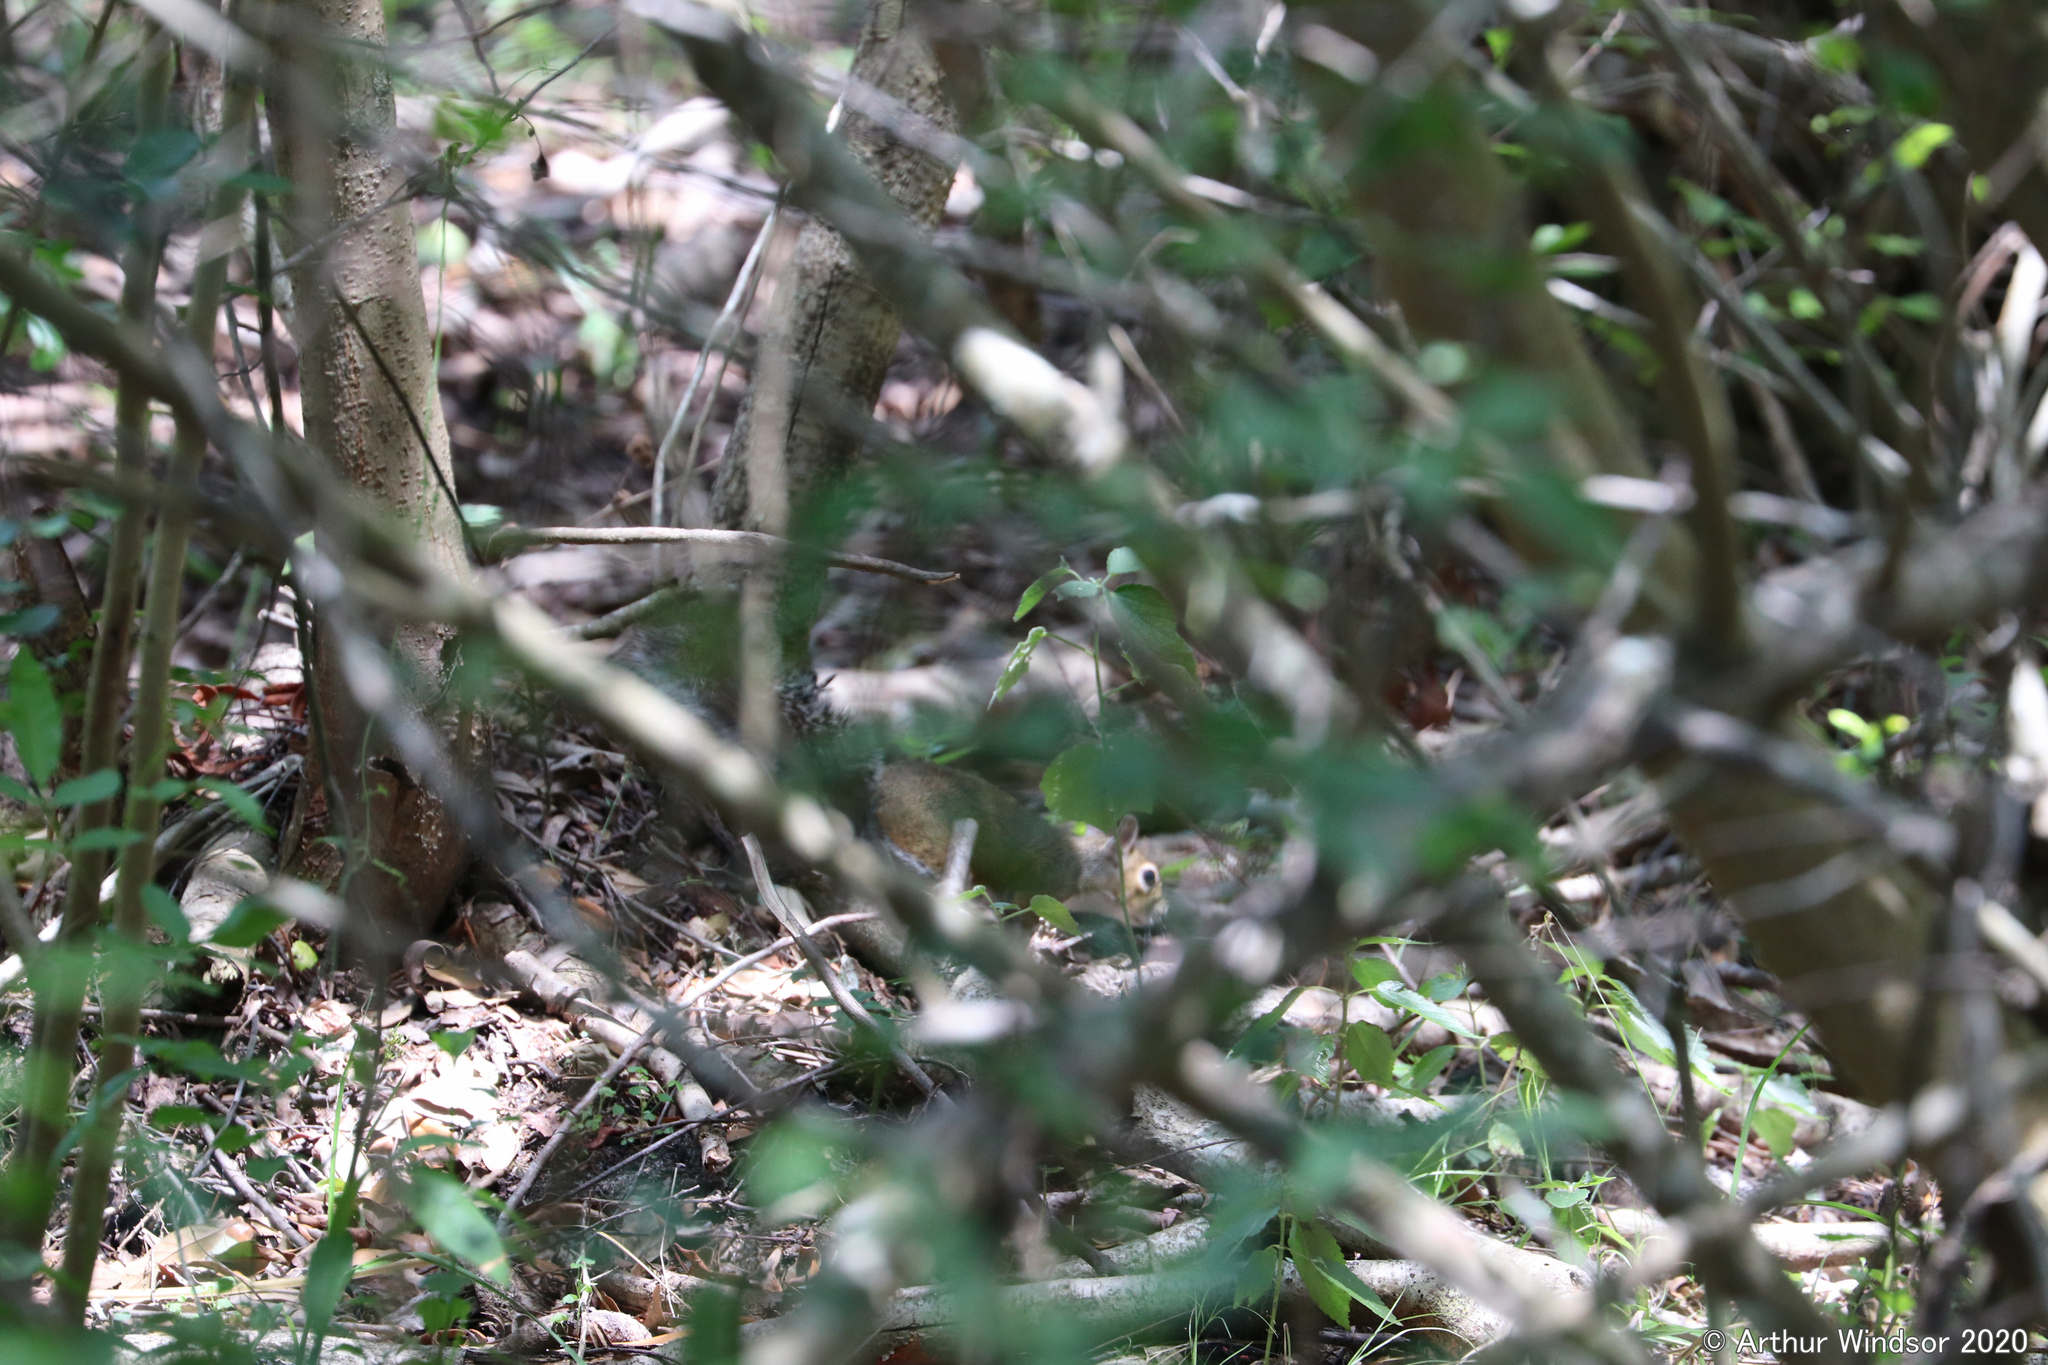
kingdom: Animalia
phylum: Chordata
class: Mammalia
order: Rodentia
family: Sciuridae
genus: Sciurus
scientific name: Sciurus carolinensis
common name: Eastern gray squirrel
